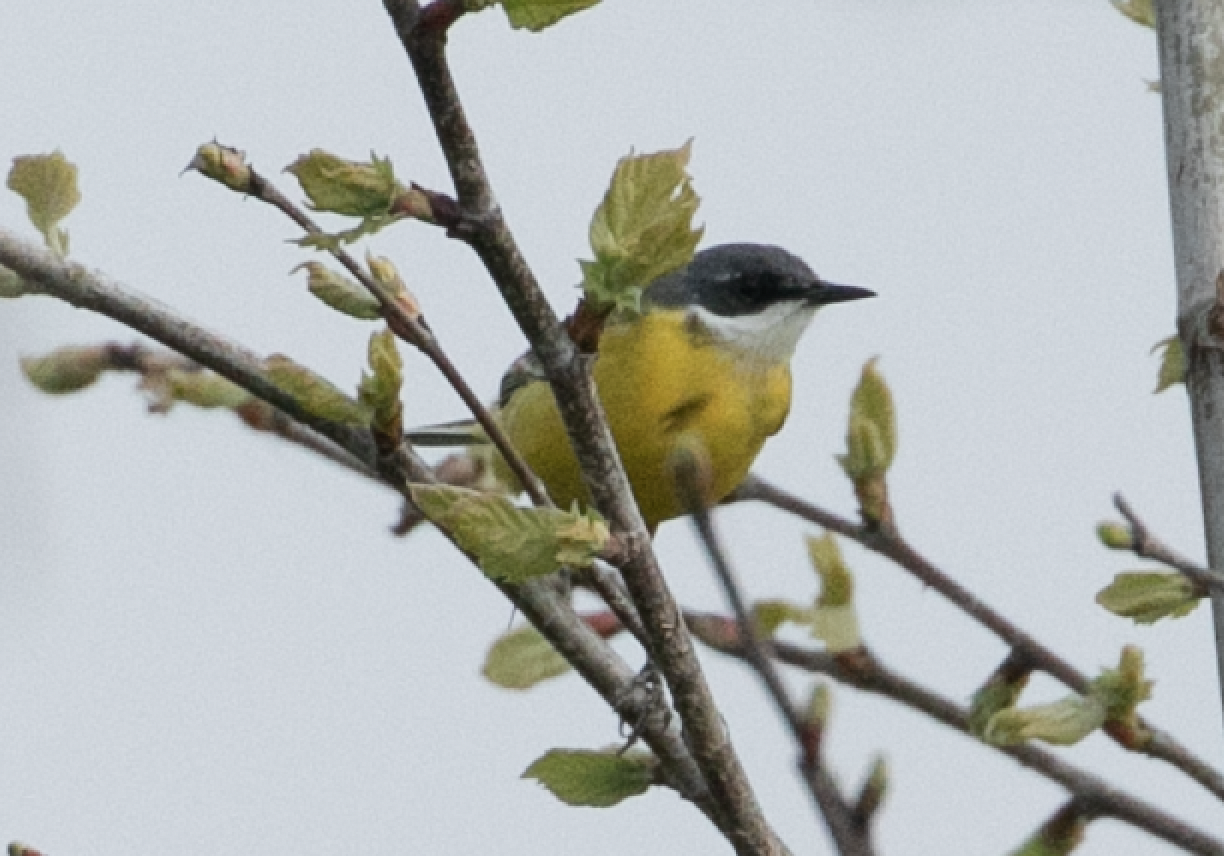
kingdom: Animalia
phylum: Chordata
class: Aves
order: Passeriformes
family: Motacillidae
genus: Motacilla
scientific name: Motacilla flava
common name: Western yellow wagtail
